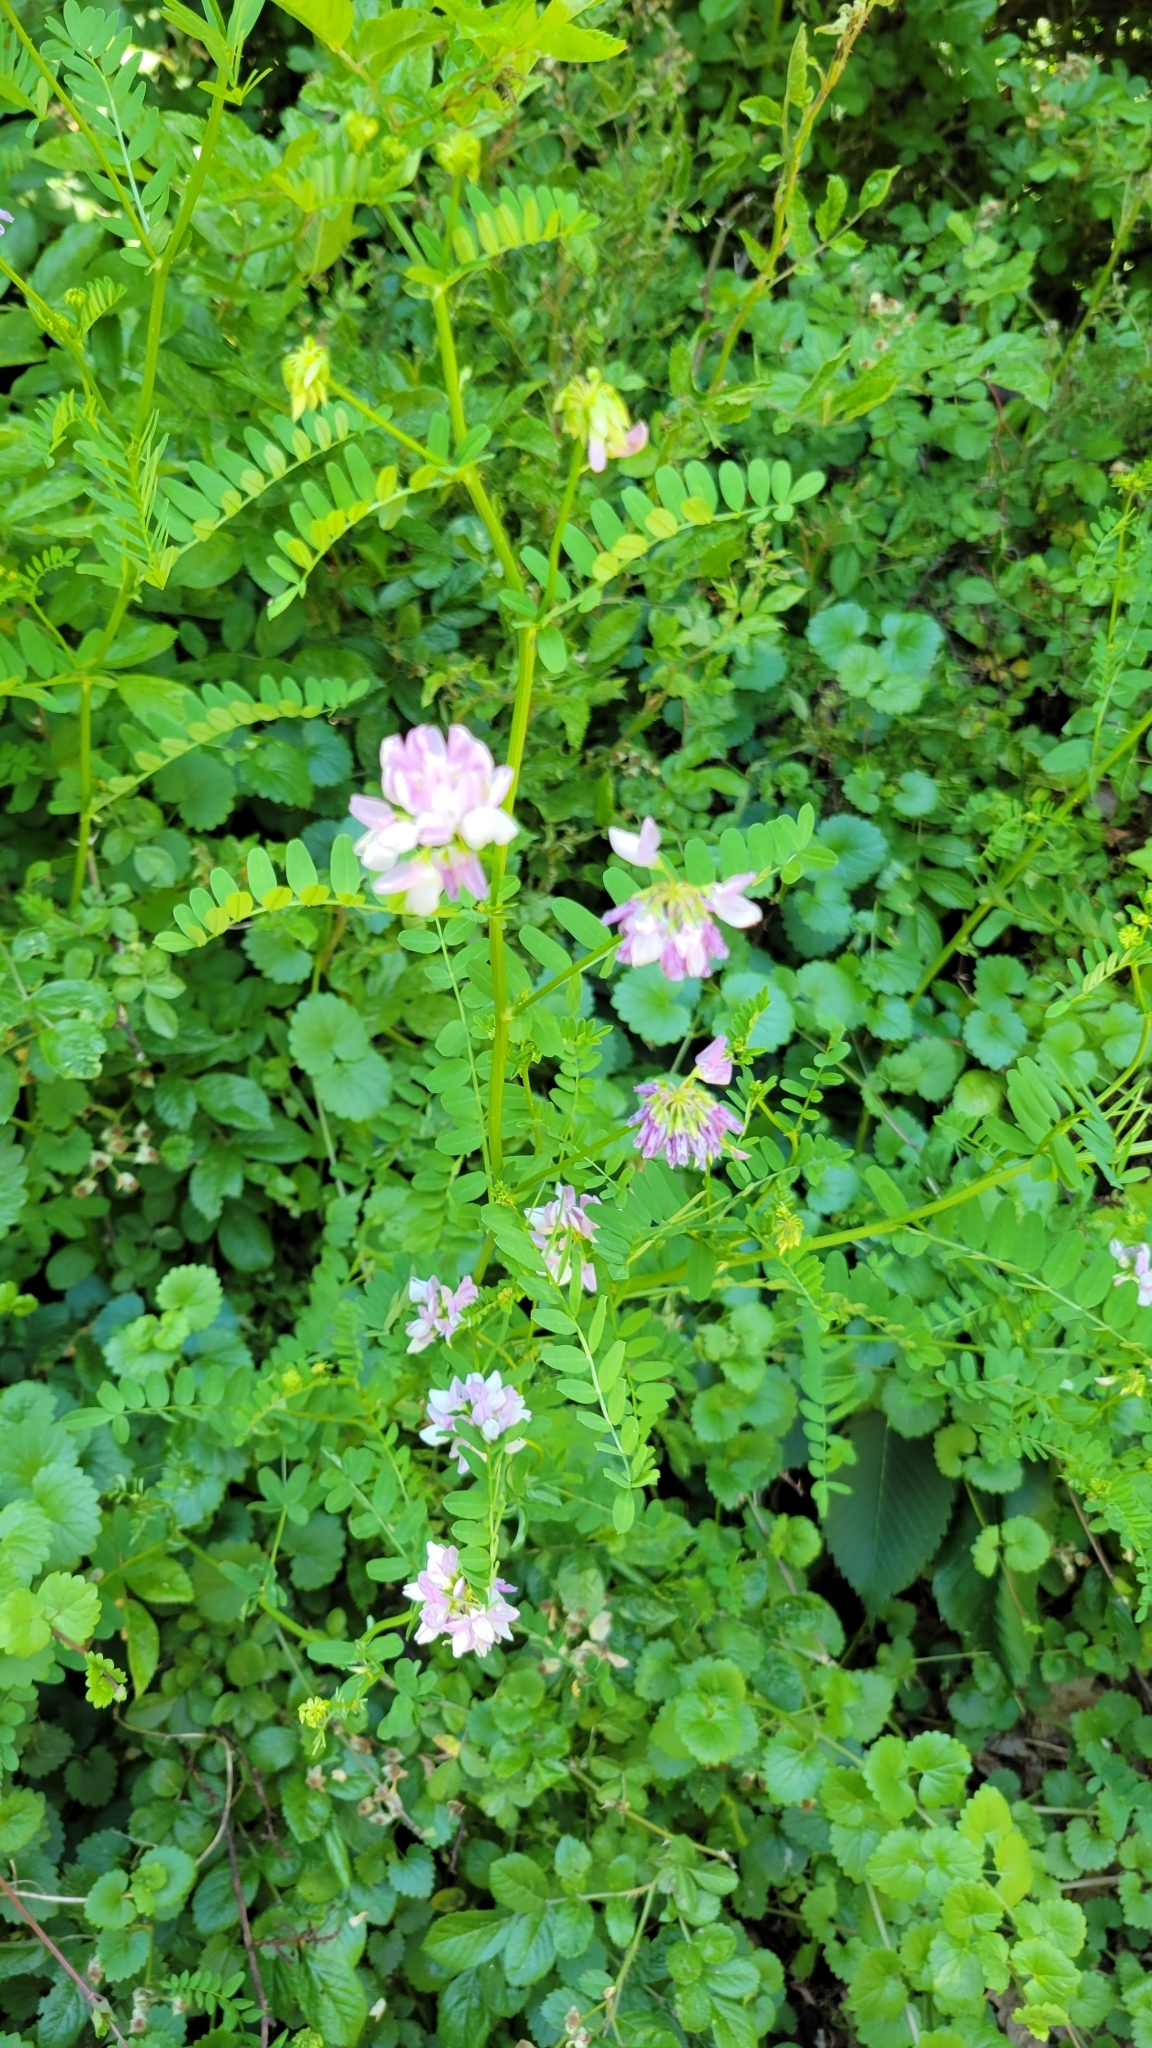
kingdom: Plantae
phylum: Tracheophyta
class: Magnoliopsida
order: Fabales
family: Fabaceae
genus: Coronilla
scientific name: Coronilla varia
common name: Crownvetch
